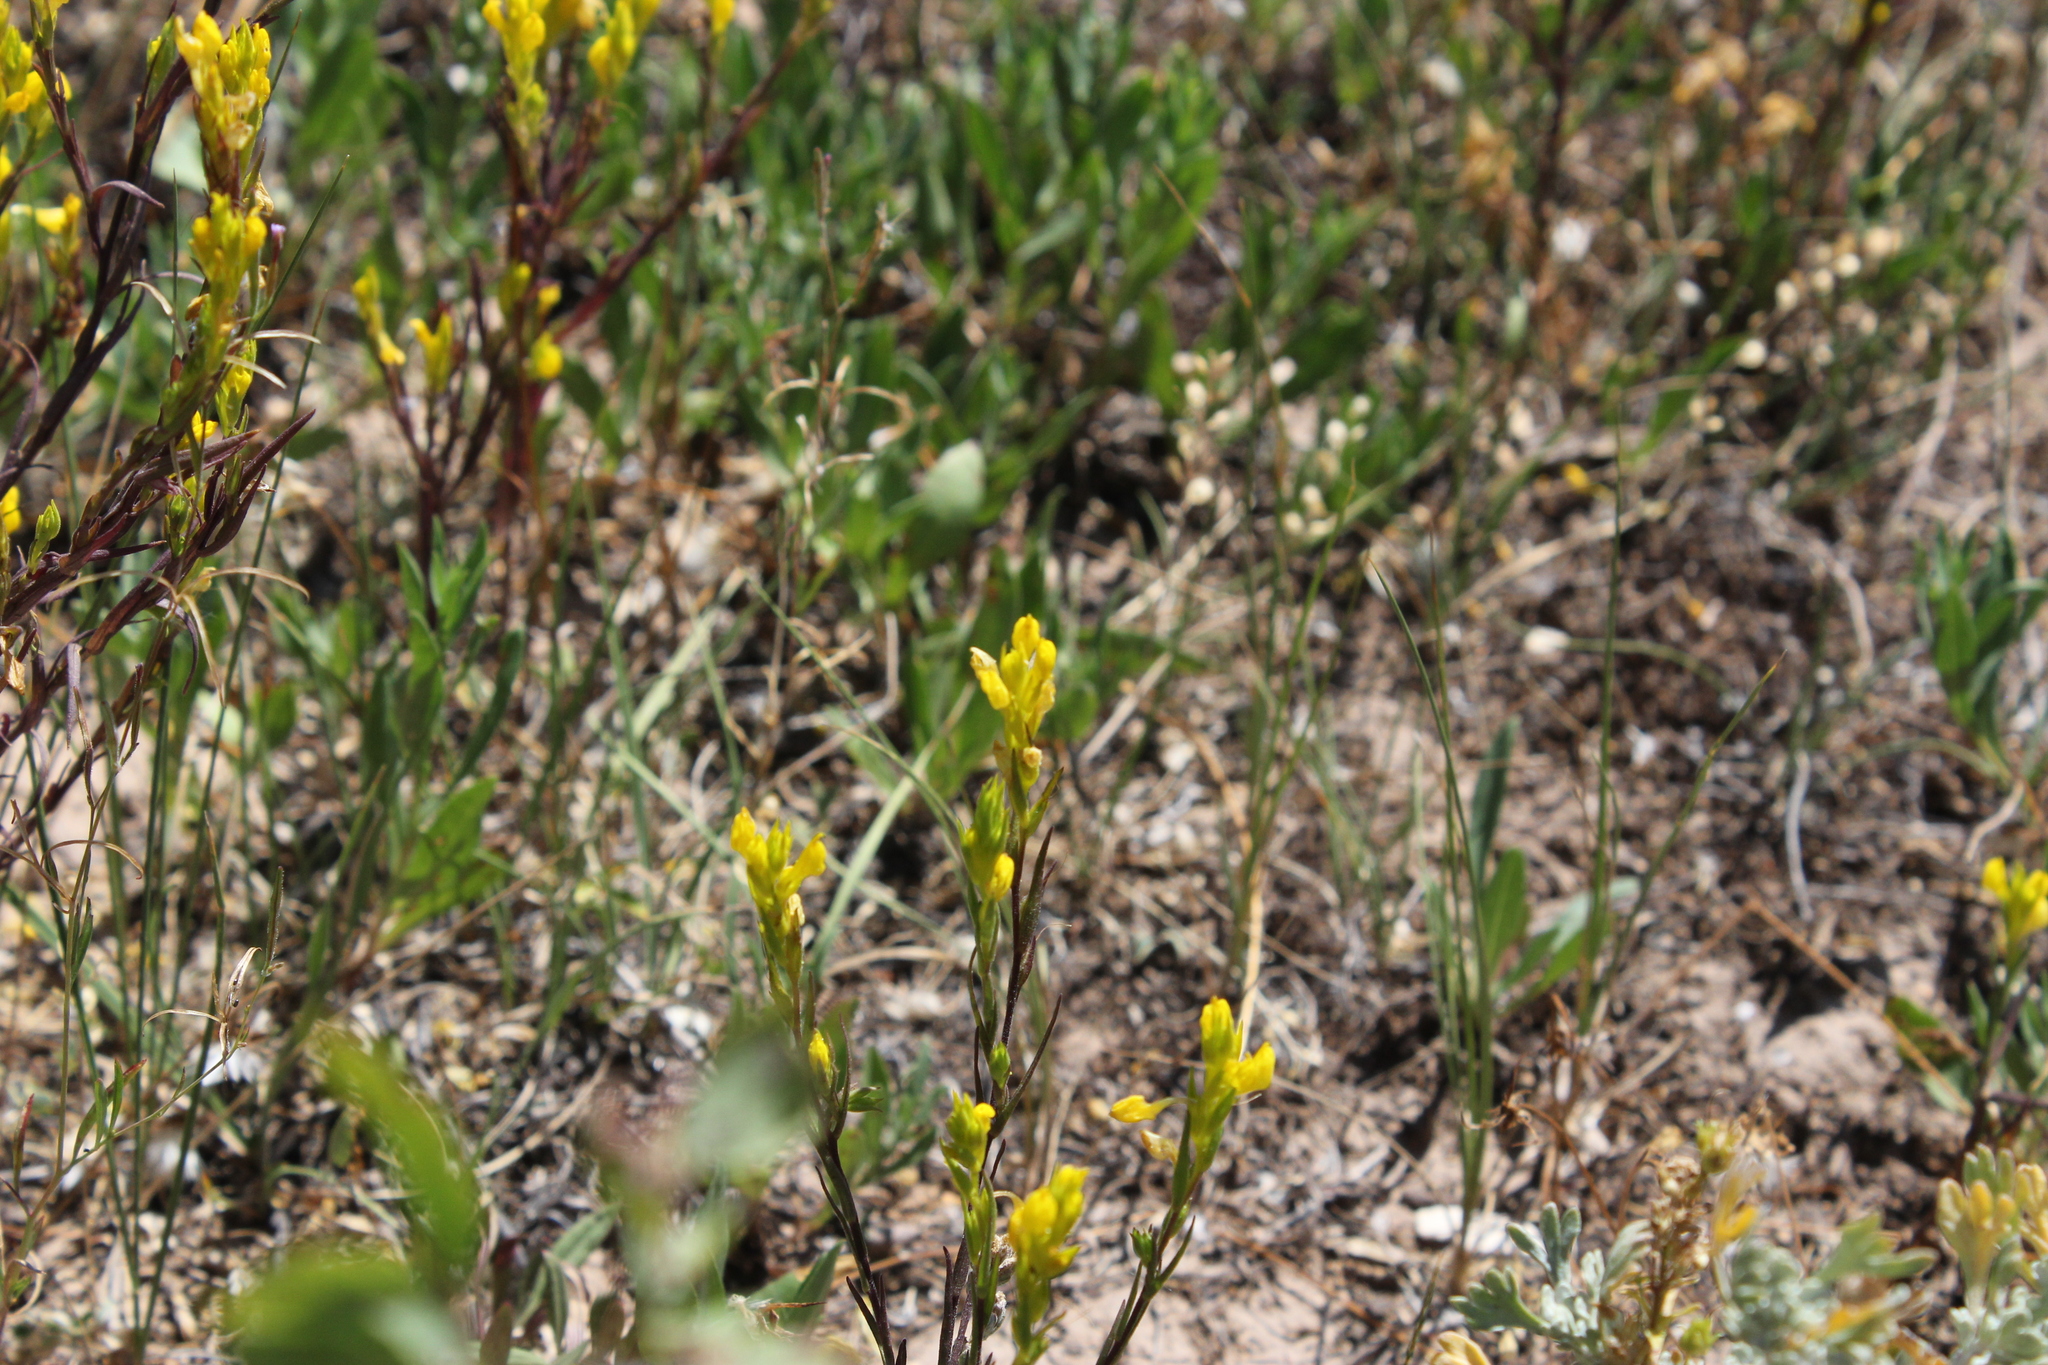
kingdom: Plantae
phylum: Tracheophyta
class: Magnoliopsida
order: Lamiales
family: Orobanchaceae
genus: Orthocarpus
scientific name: Orthocarpus luteus
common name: Golden-tongue owl's-clover
